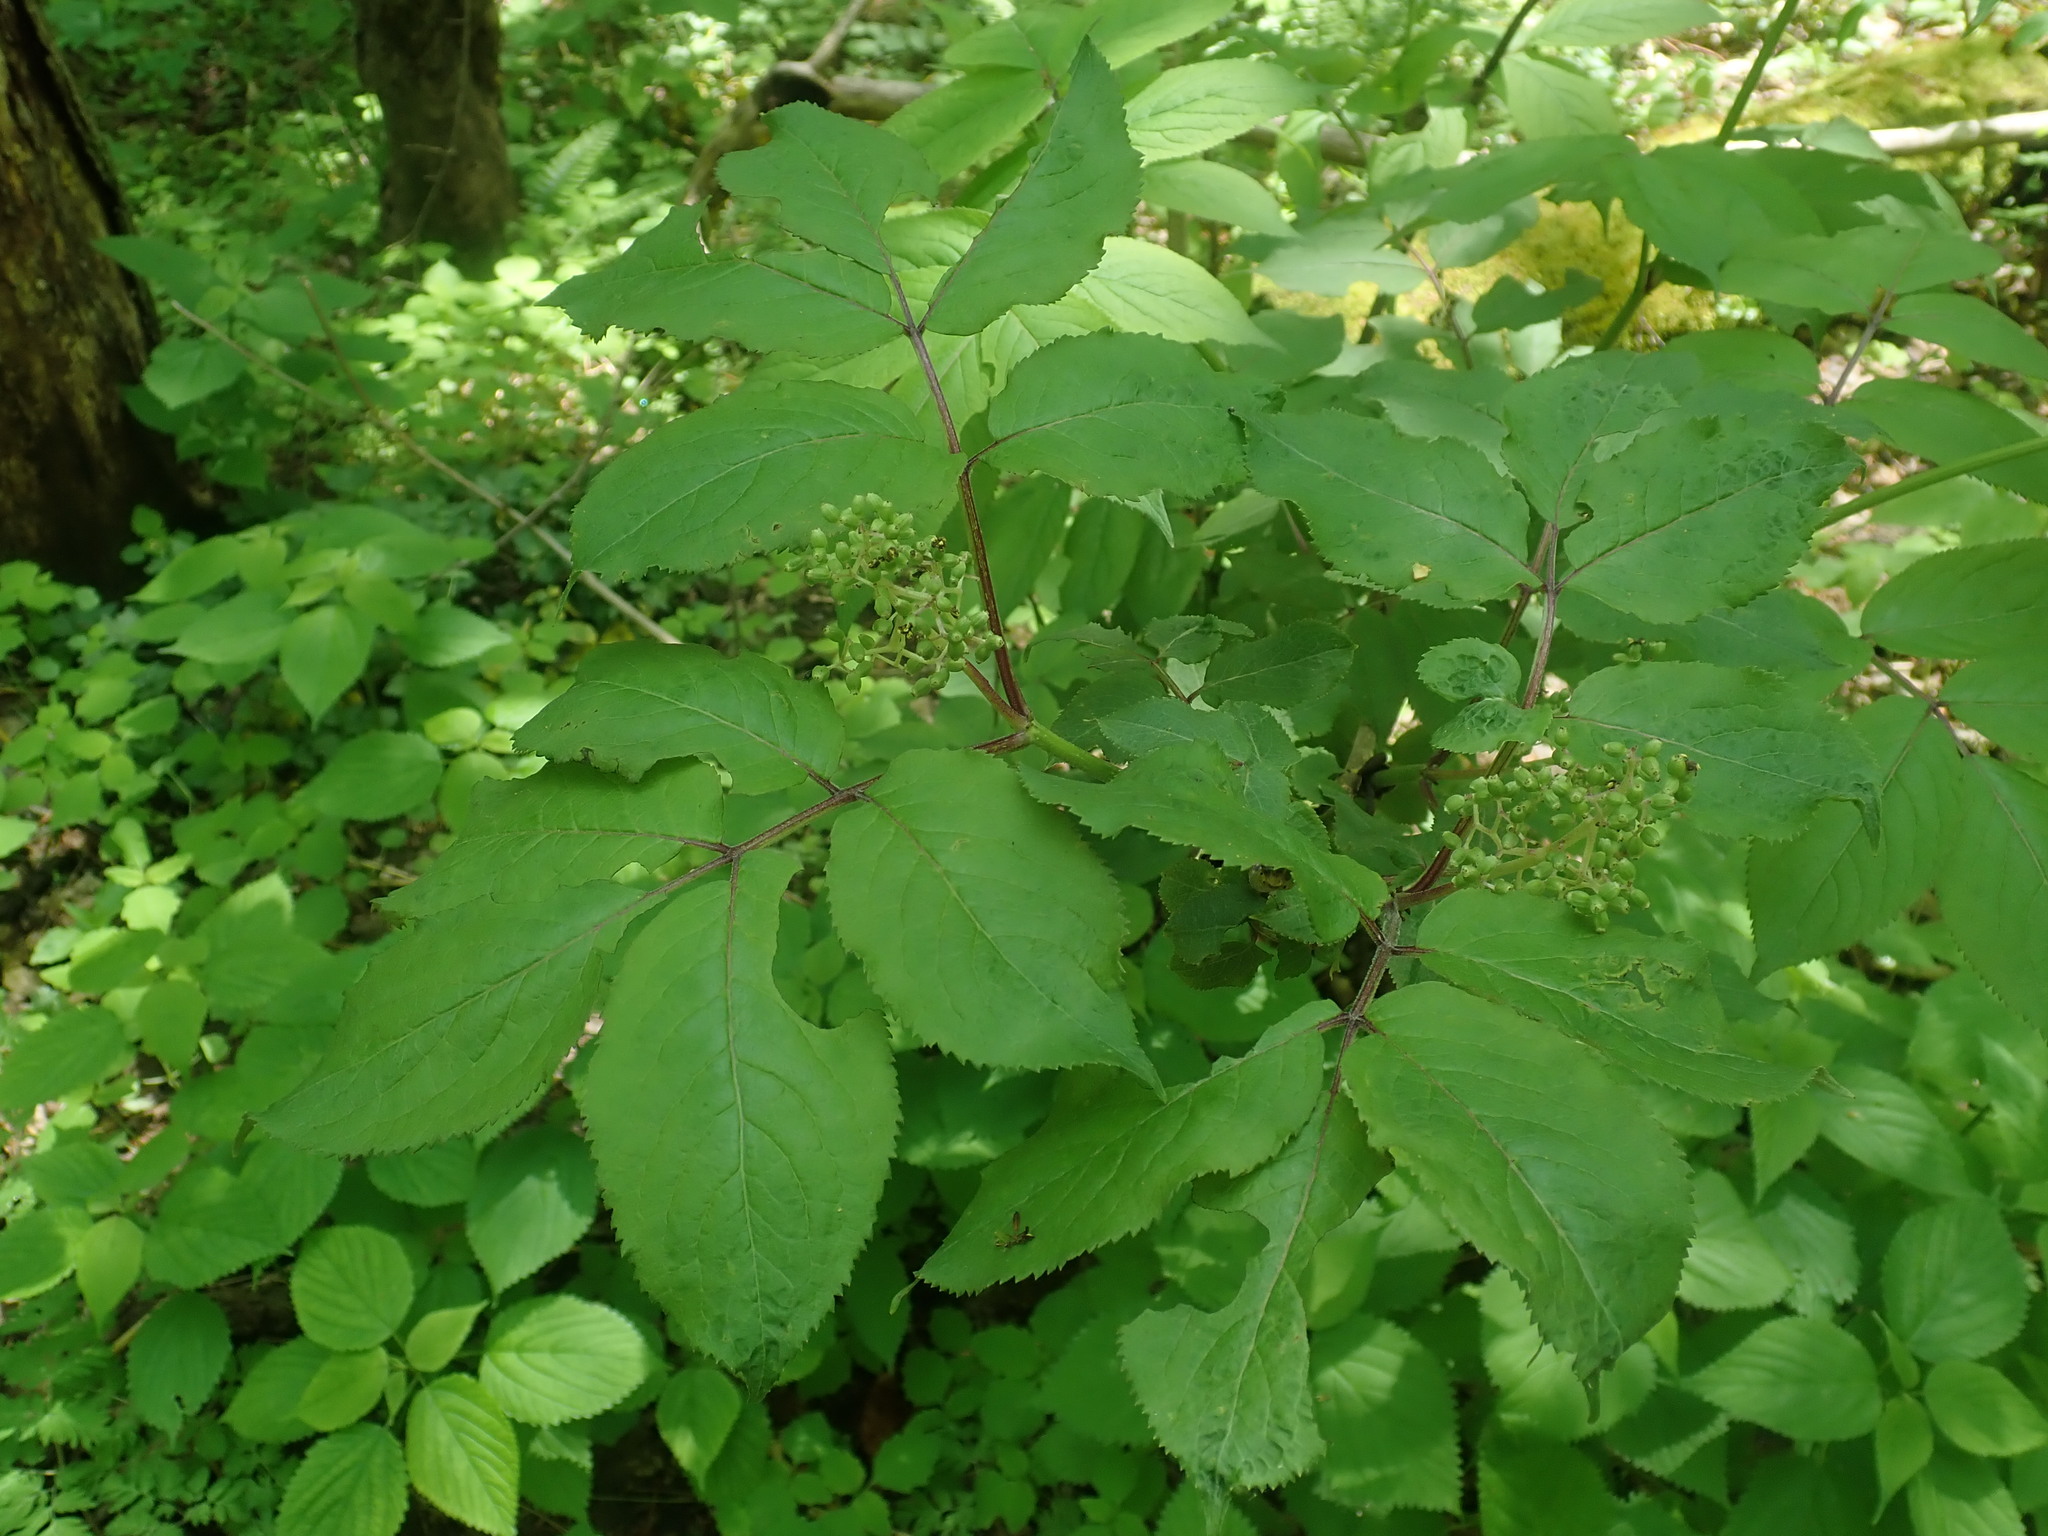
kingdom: Plantae
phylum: Tracheophyta
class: Magnoliopsida
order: Dipsacales
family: Viburnaceae
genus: Sambucus
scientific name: Sambucus racemosa
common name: Red-berried elder
